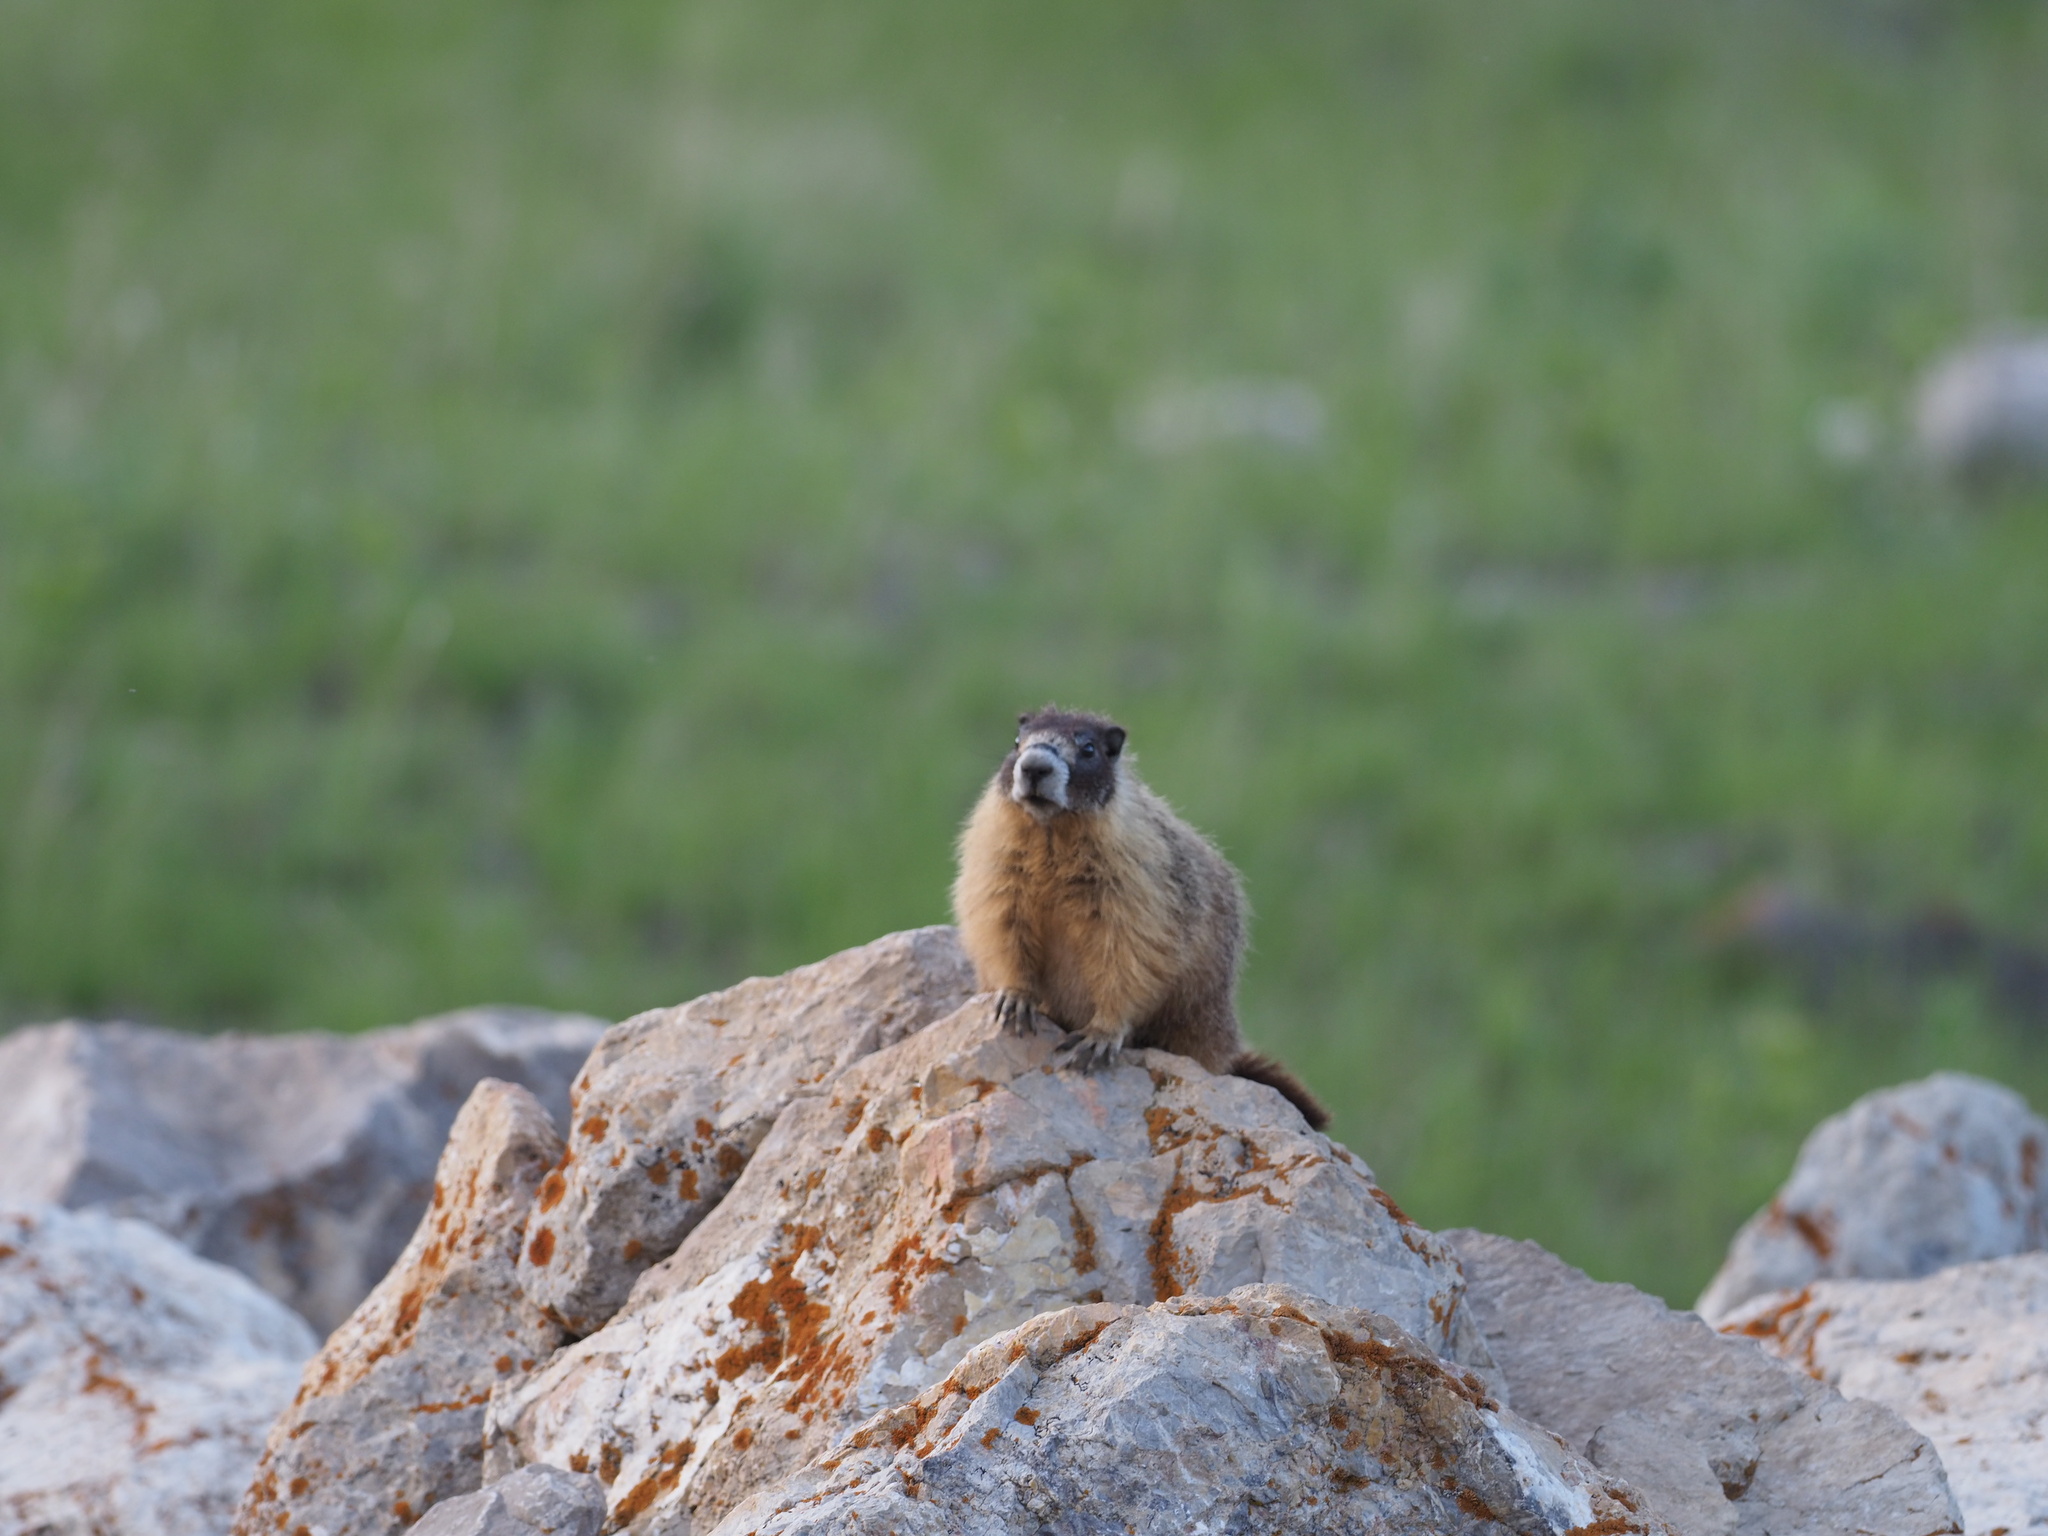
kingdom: Animalia
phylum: Chordata
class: Mammalia
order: Rodentia
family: Sciuridae
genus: Marmota
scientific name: Marmota flaviventris
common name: Yellow-bellied marmot
